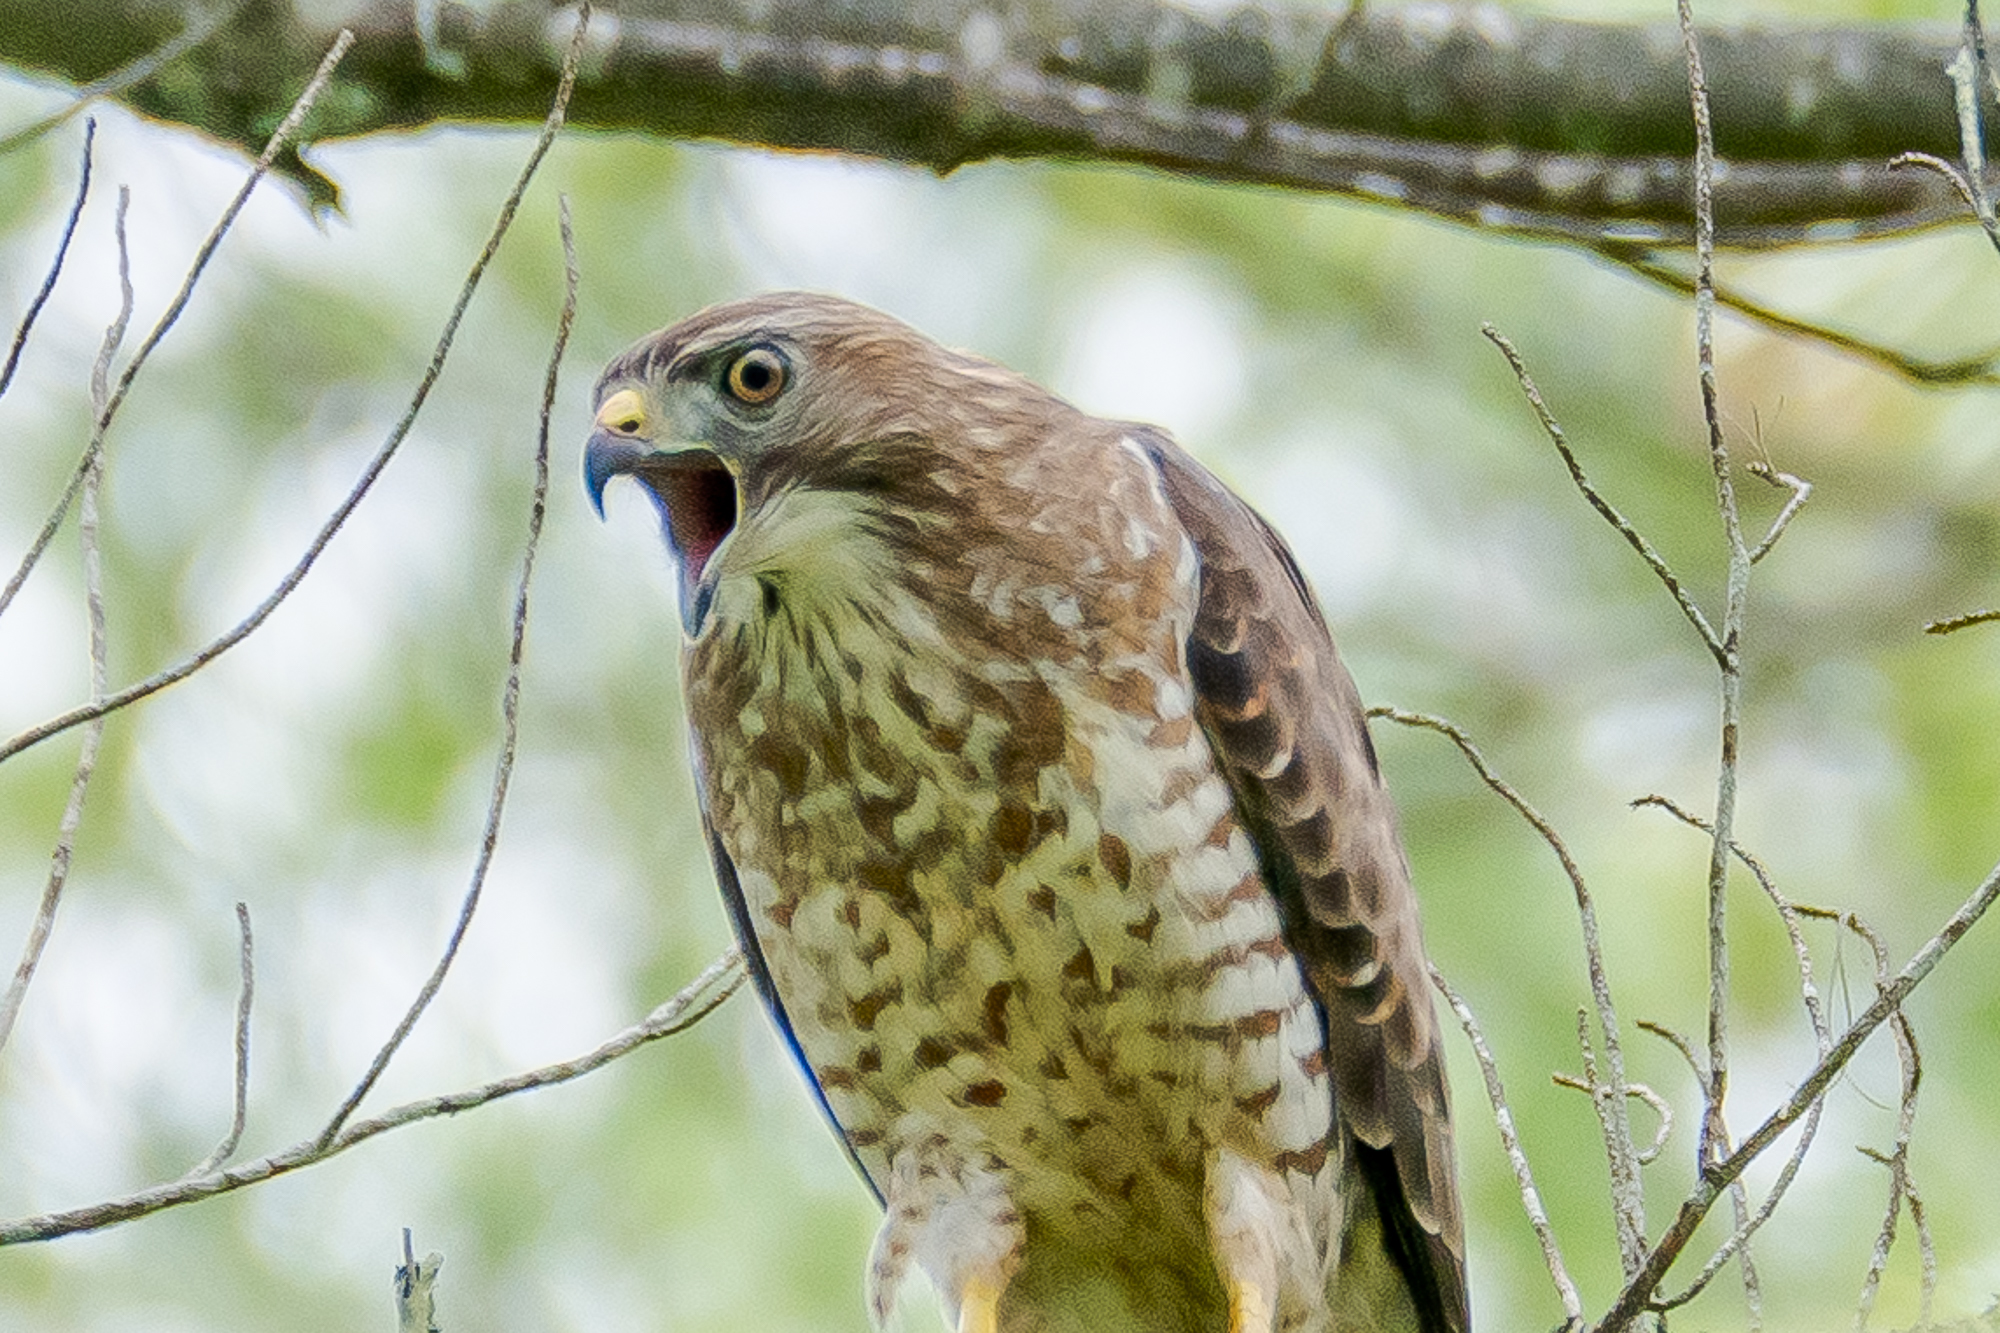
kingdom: Animalia
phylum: Chordata
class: Aves
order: Accipitriformes
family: Accipitridae
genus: Buteo
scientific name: Buteo platypterus
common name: Broad-winged hawk
